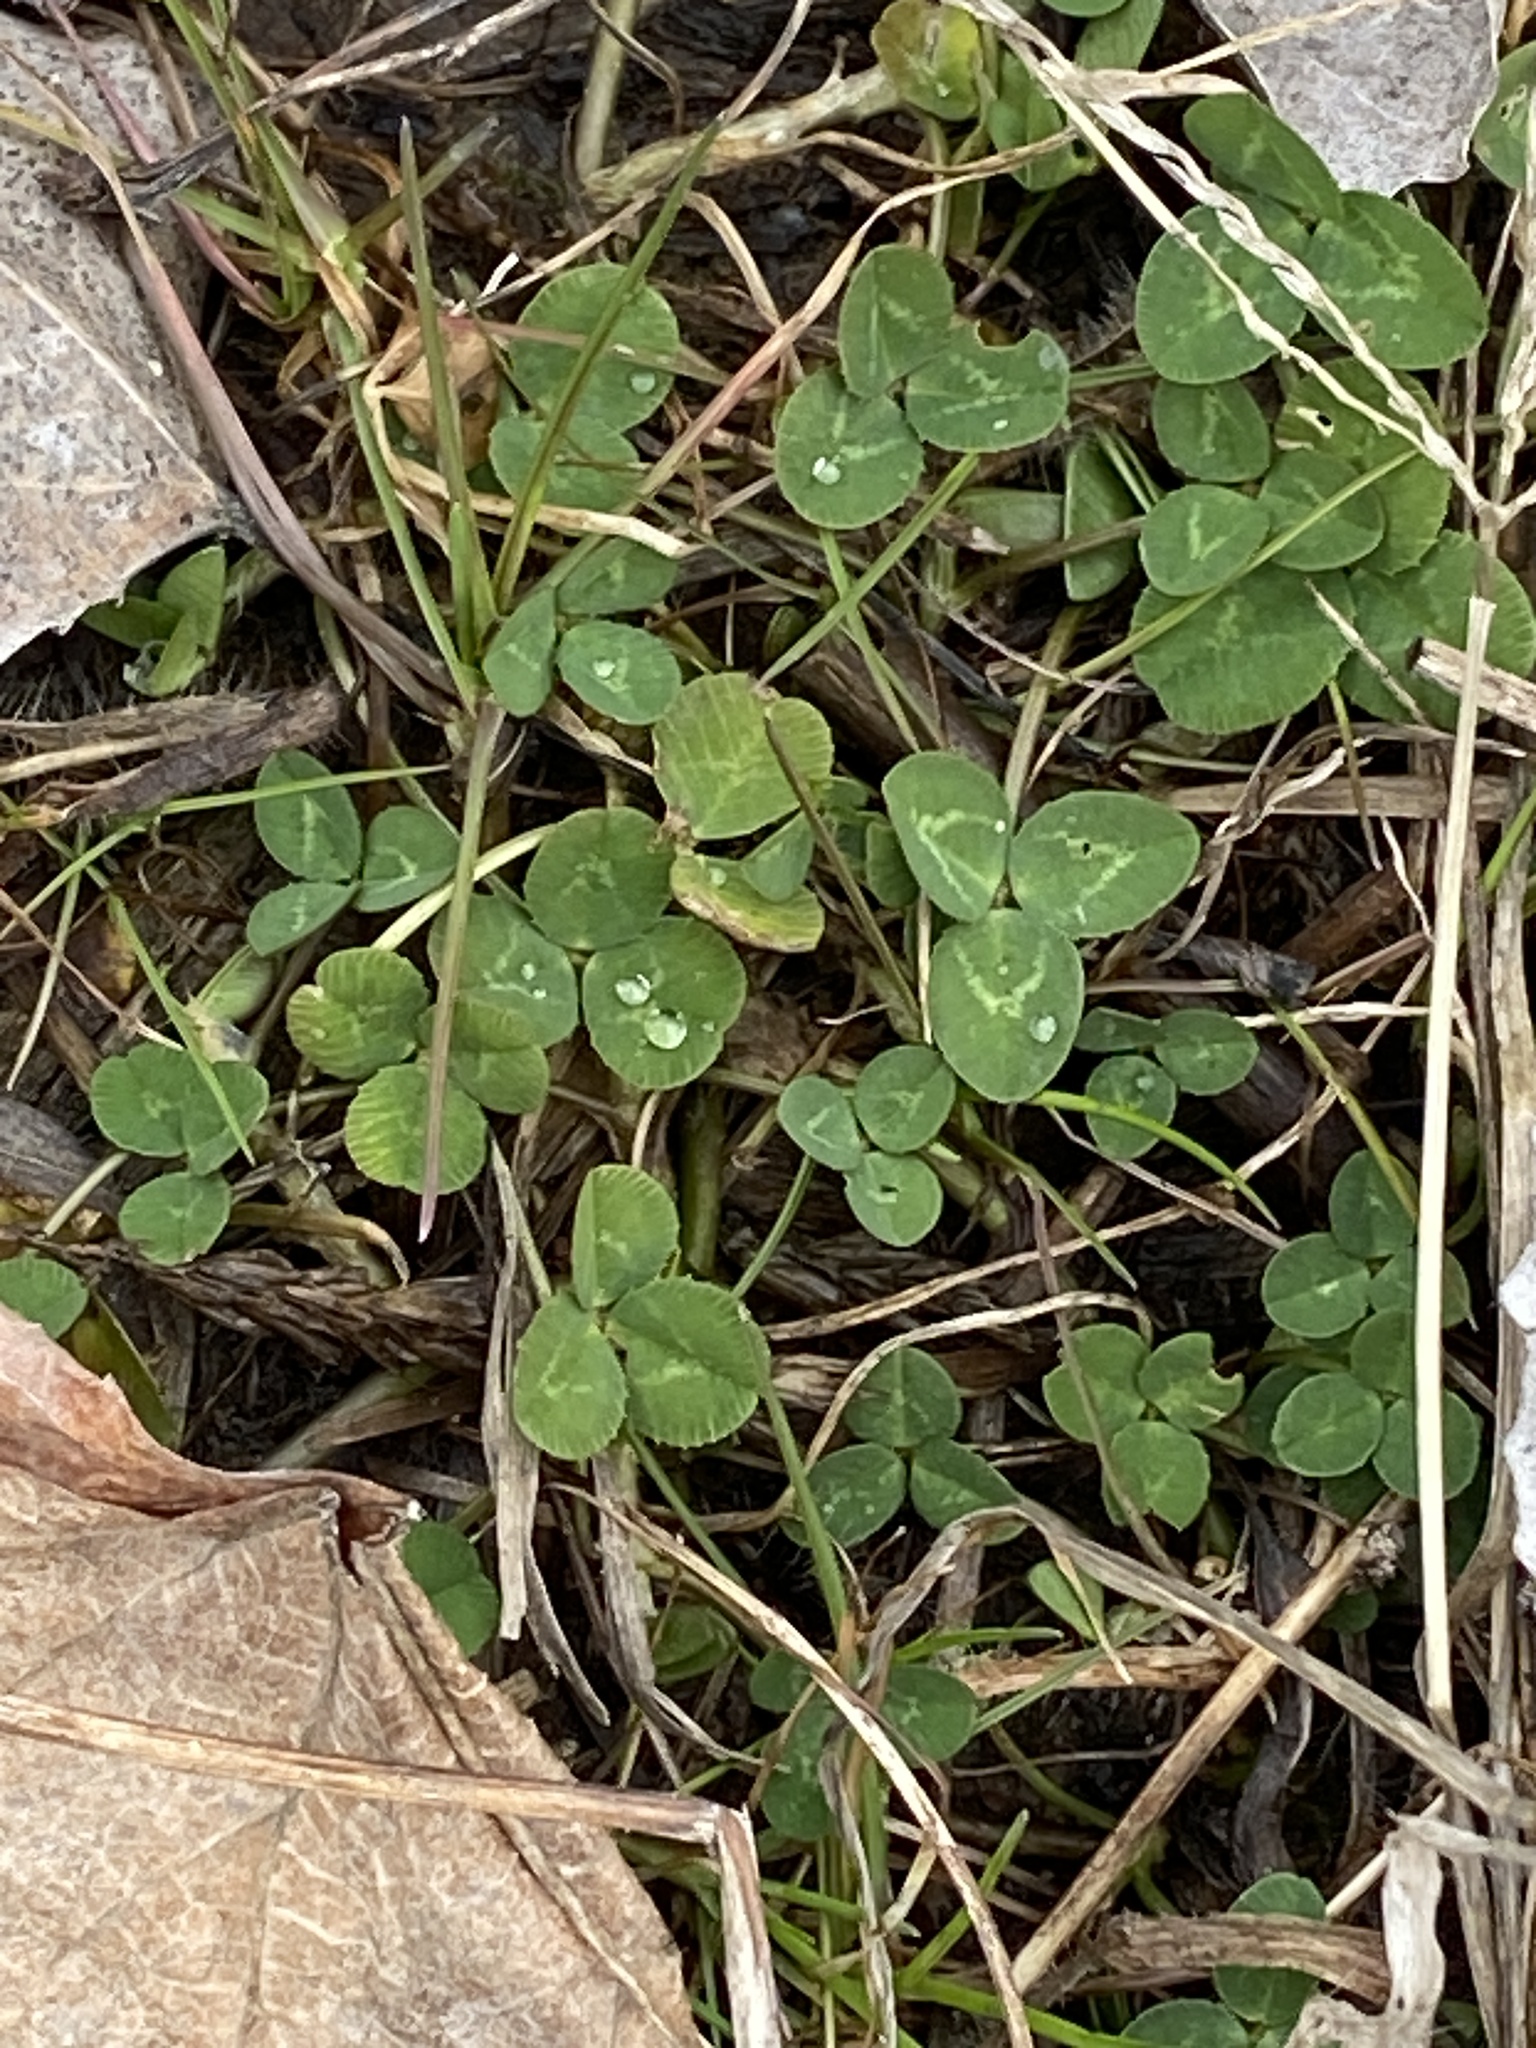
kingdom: Plantae
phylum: Tracheophyta
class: Magnoliopsida
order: Fabales
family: Fabaceae
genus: Trifolium
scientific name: Trifolium repens
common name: White clover
